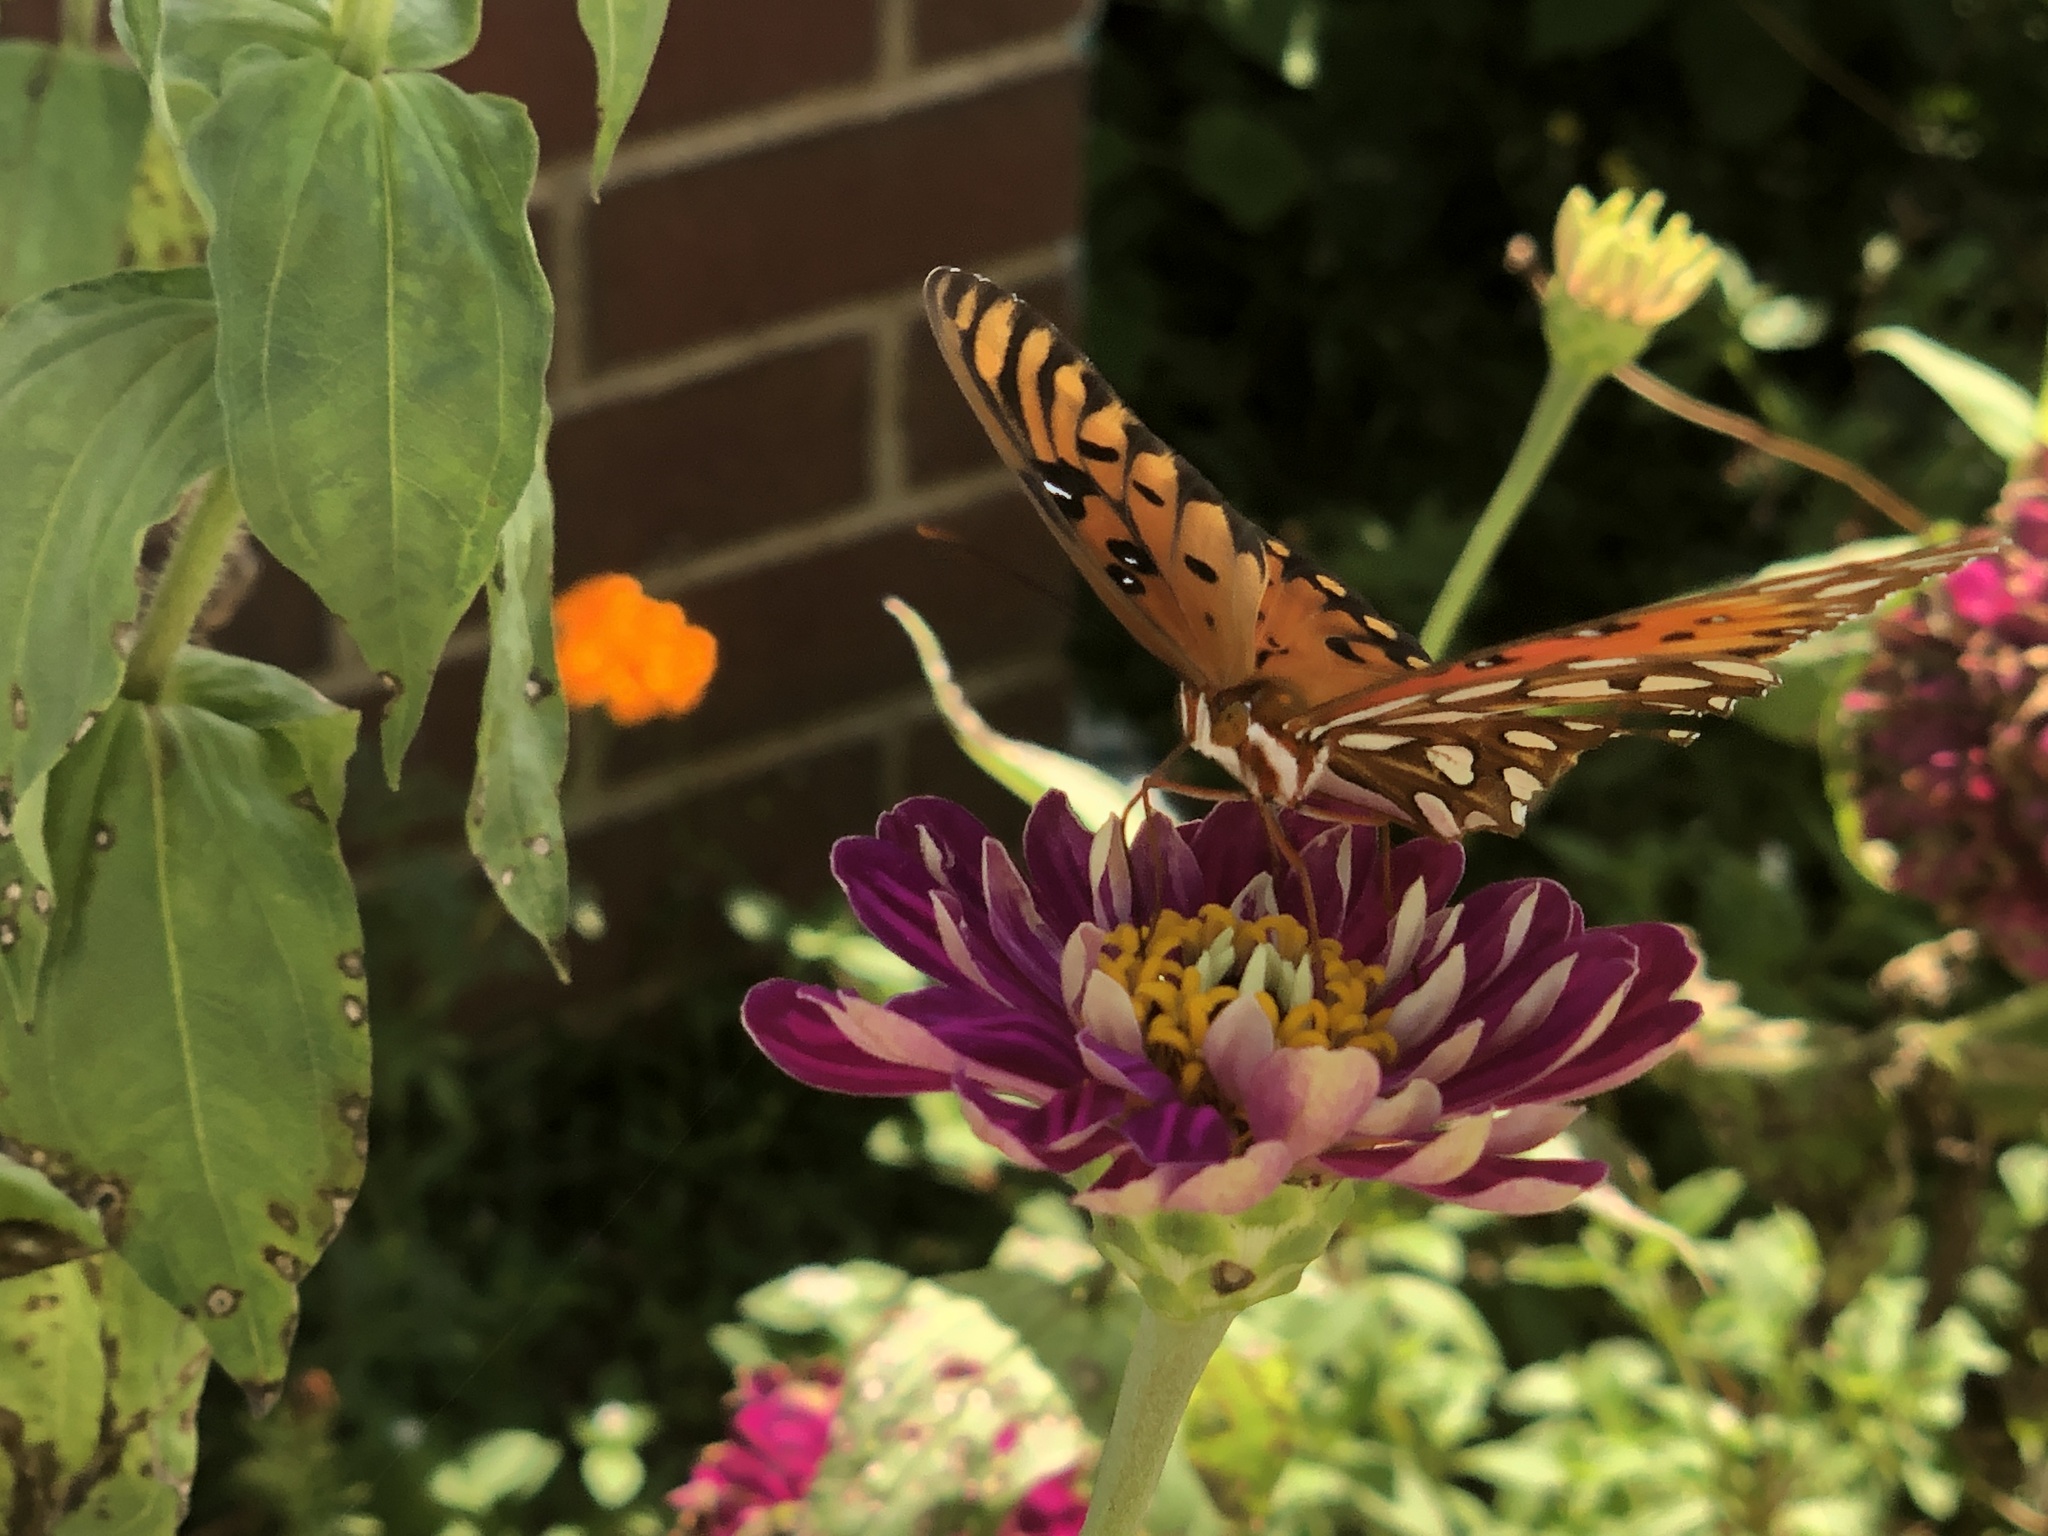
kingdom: Animalia
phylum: Arthropoda
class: Insecta
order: Lepidoptera
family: Nymphalidae
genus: Dione
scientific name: Dione vanillae
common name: Gulf fritillary
